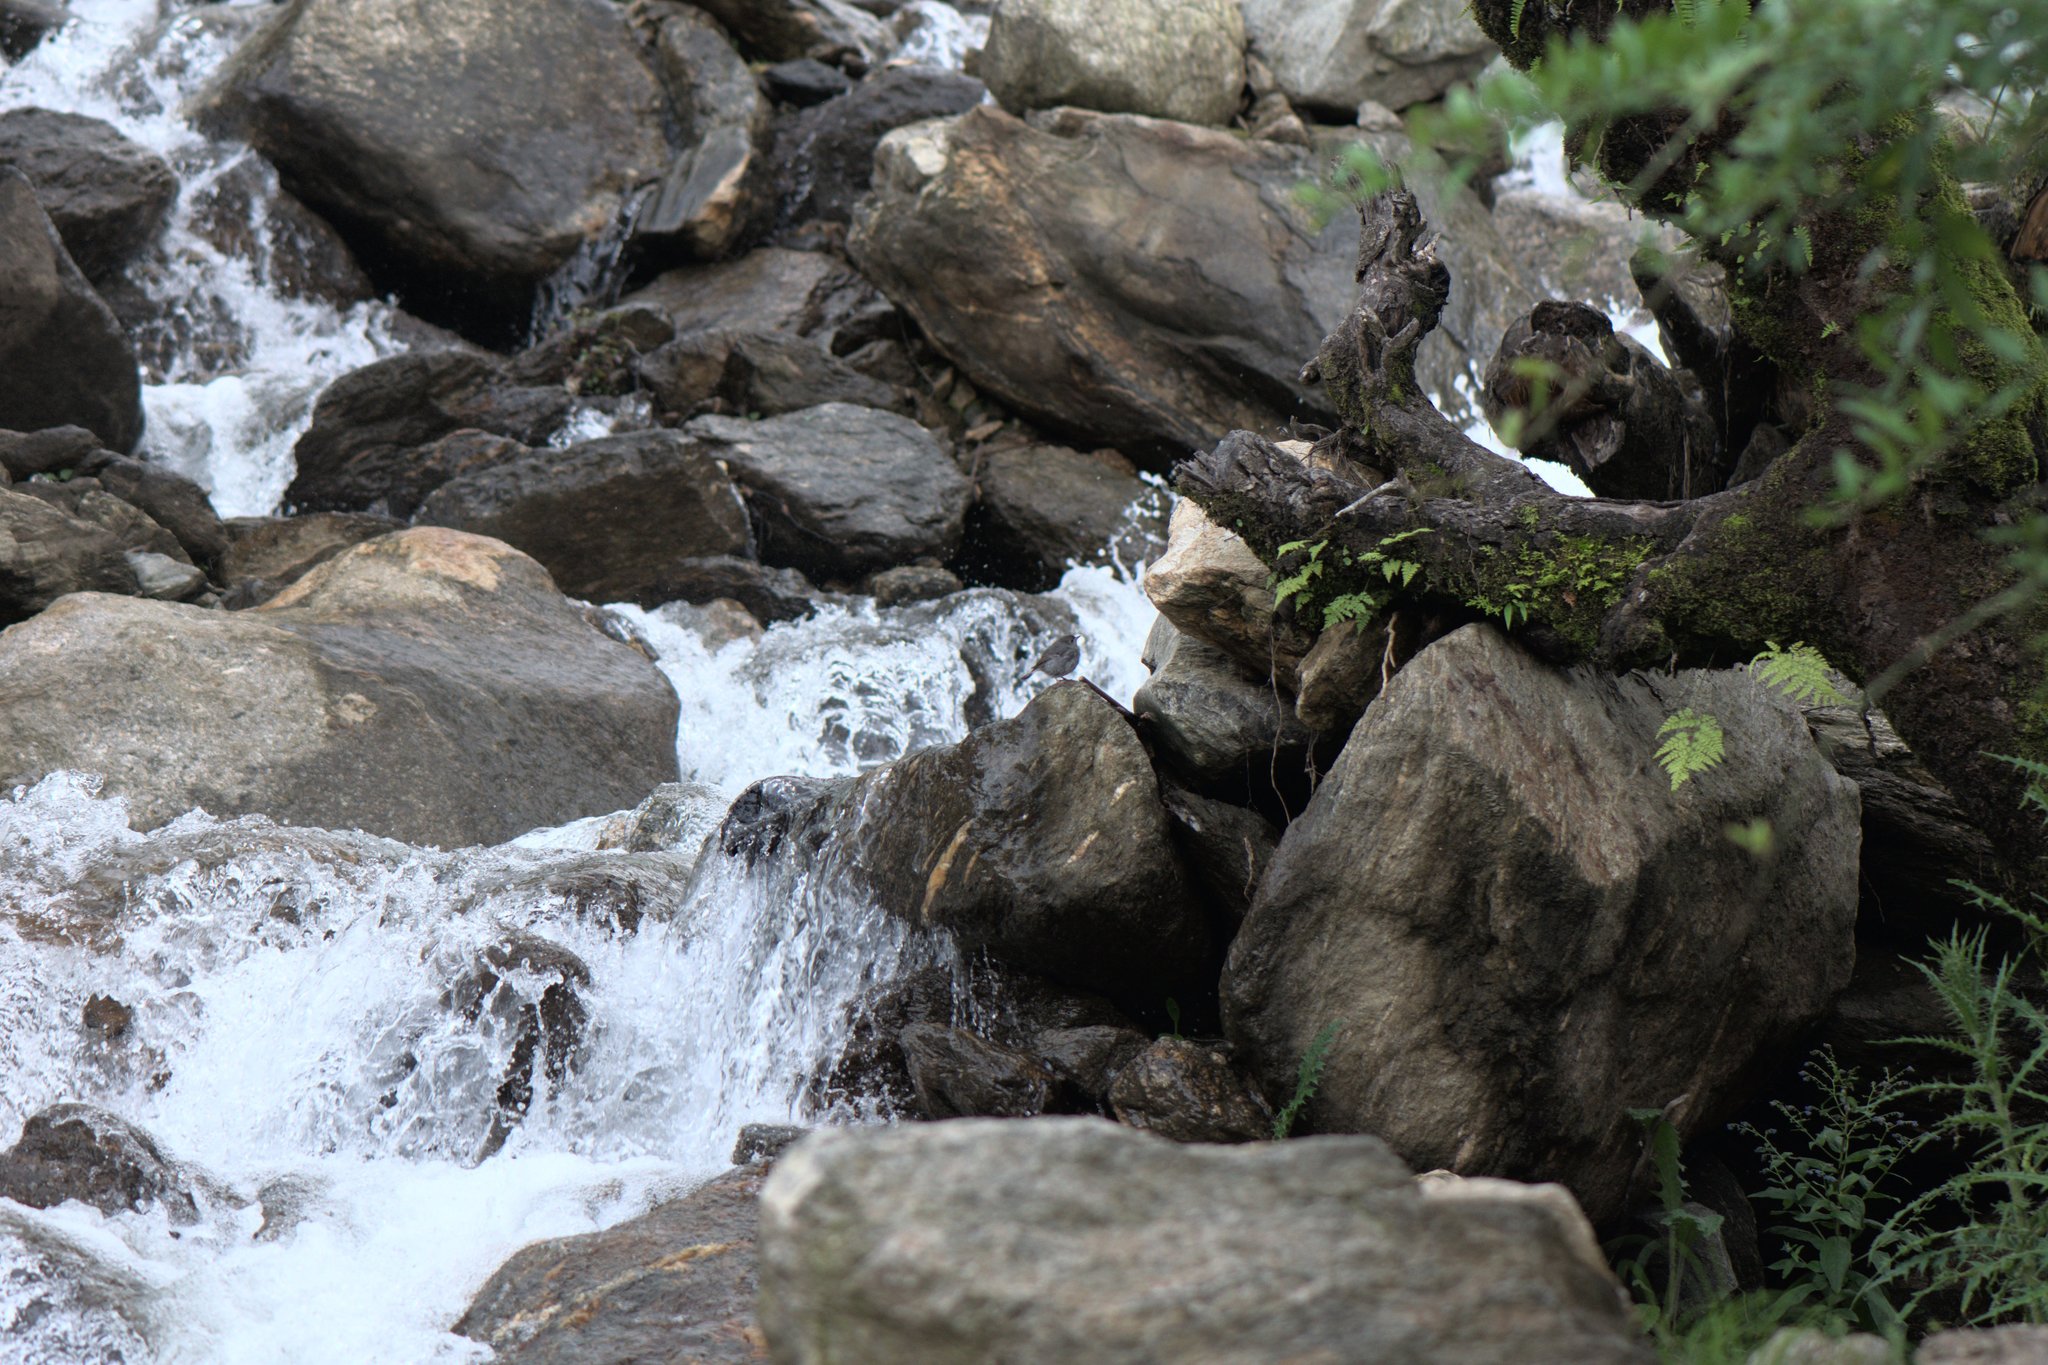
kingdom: Animalia
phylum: Chordata
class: Aves
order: Passeriformes
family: Muscicapidae
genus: Phoenicurus
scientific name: Phoenicurus fuliginosus
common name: Plumbeous water redstart
